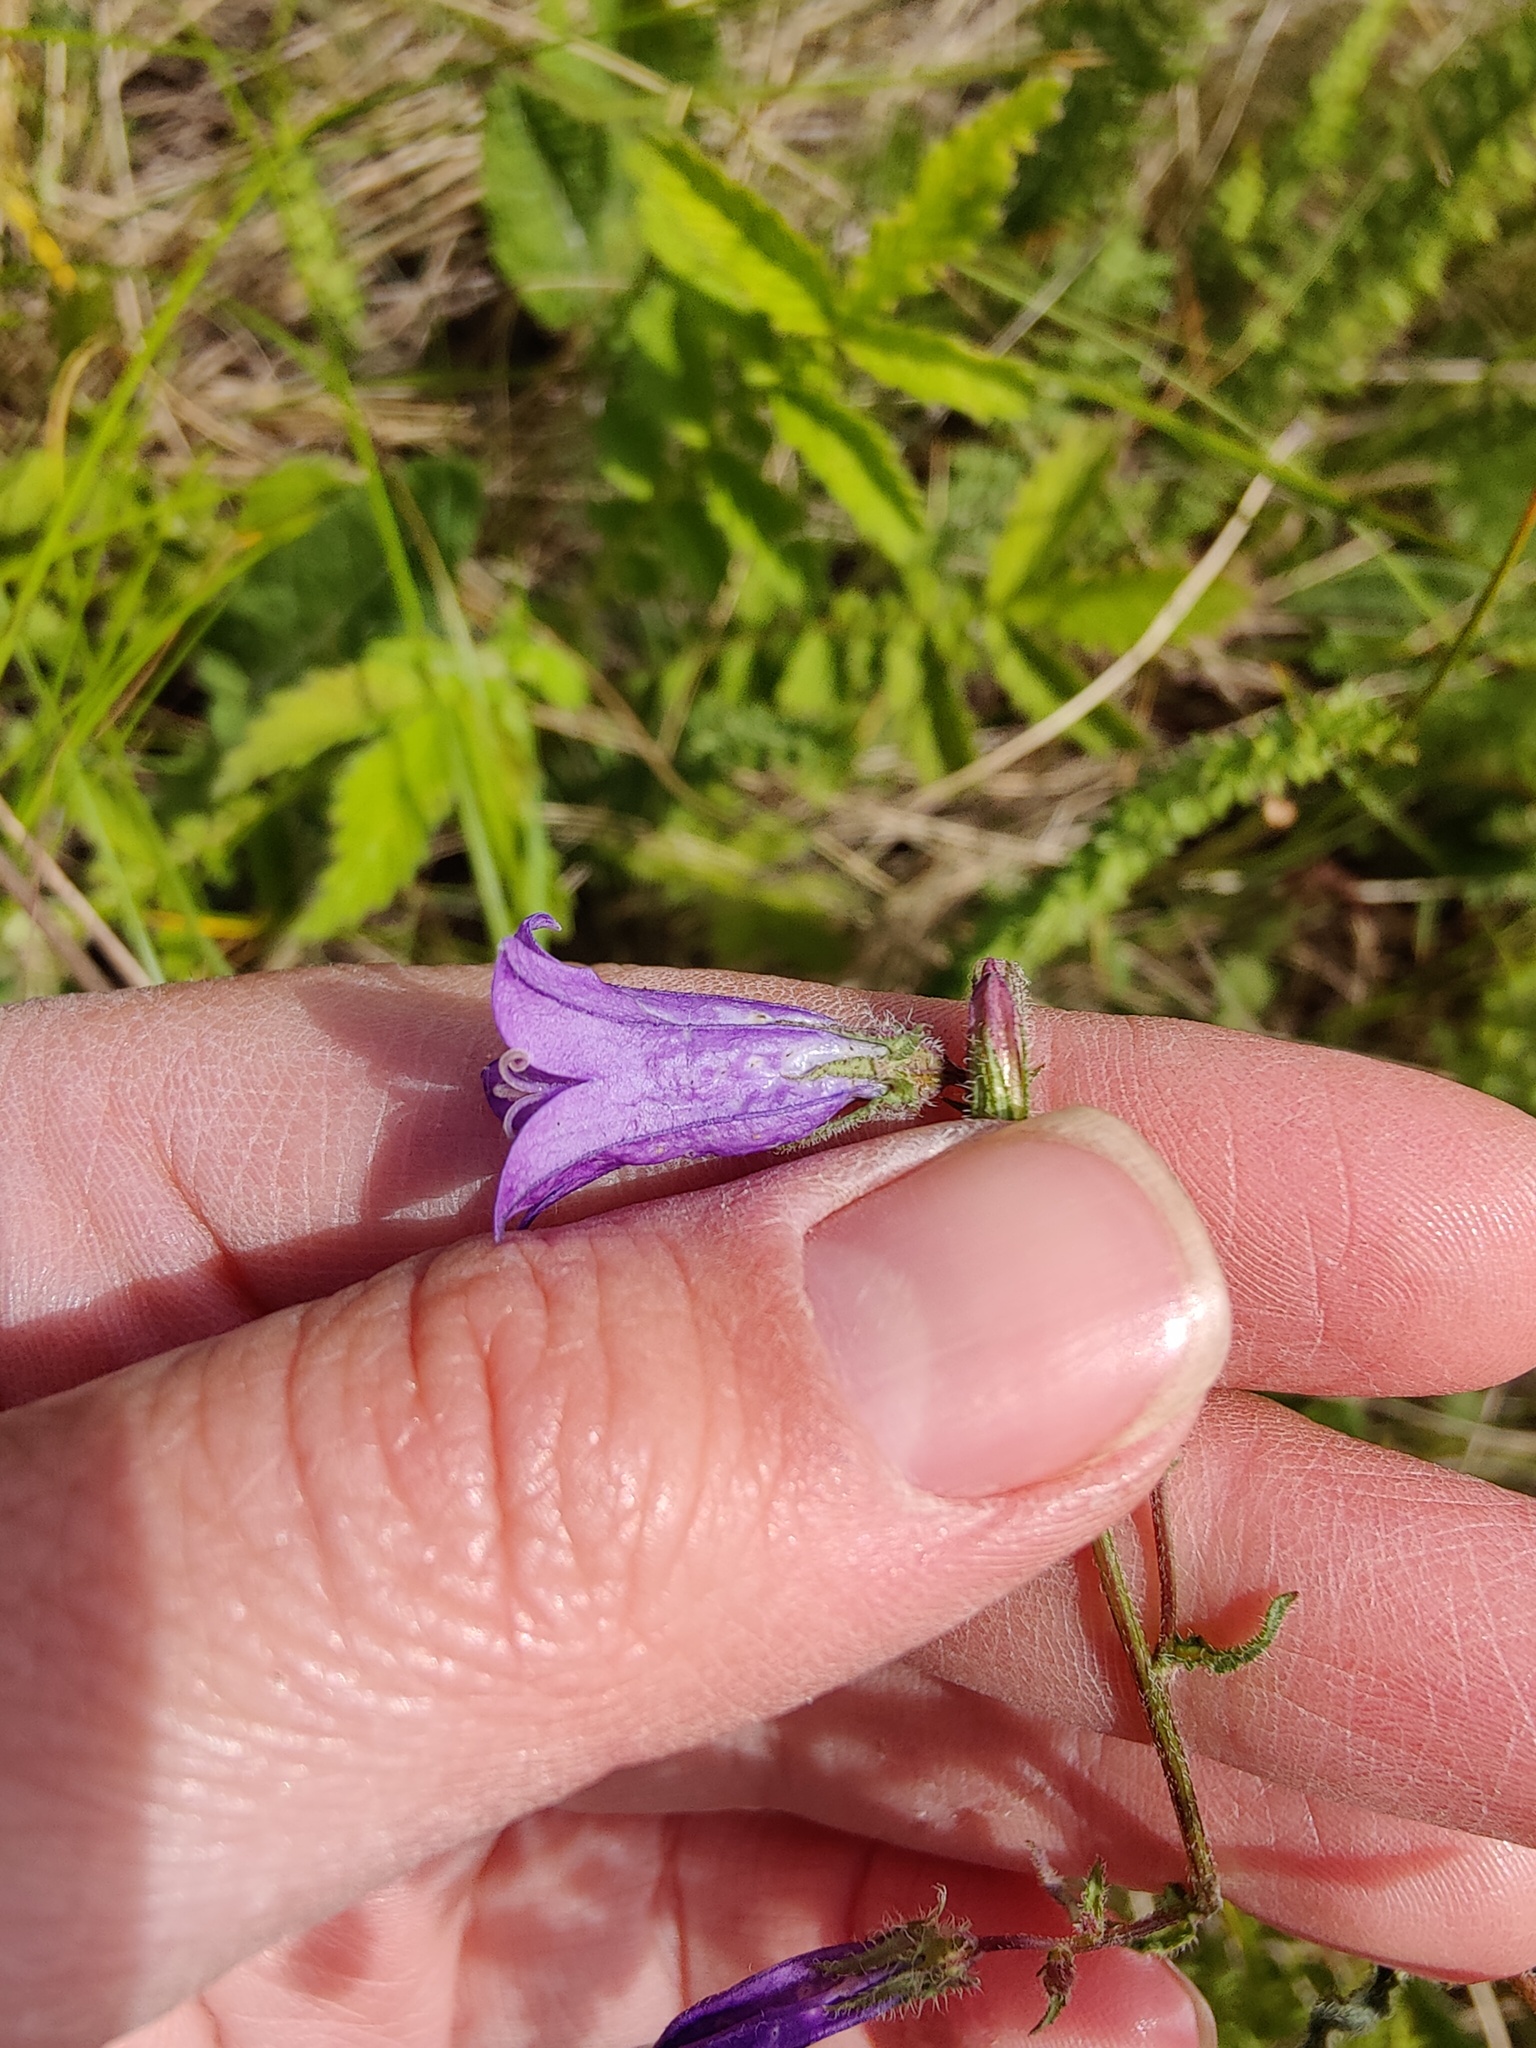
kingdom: Plantae
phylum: Tracheophyta
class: Magnoliopsida
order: Asterales
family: Campanulaceae
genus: Campanula
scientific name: Campanula sibirica
